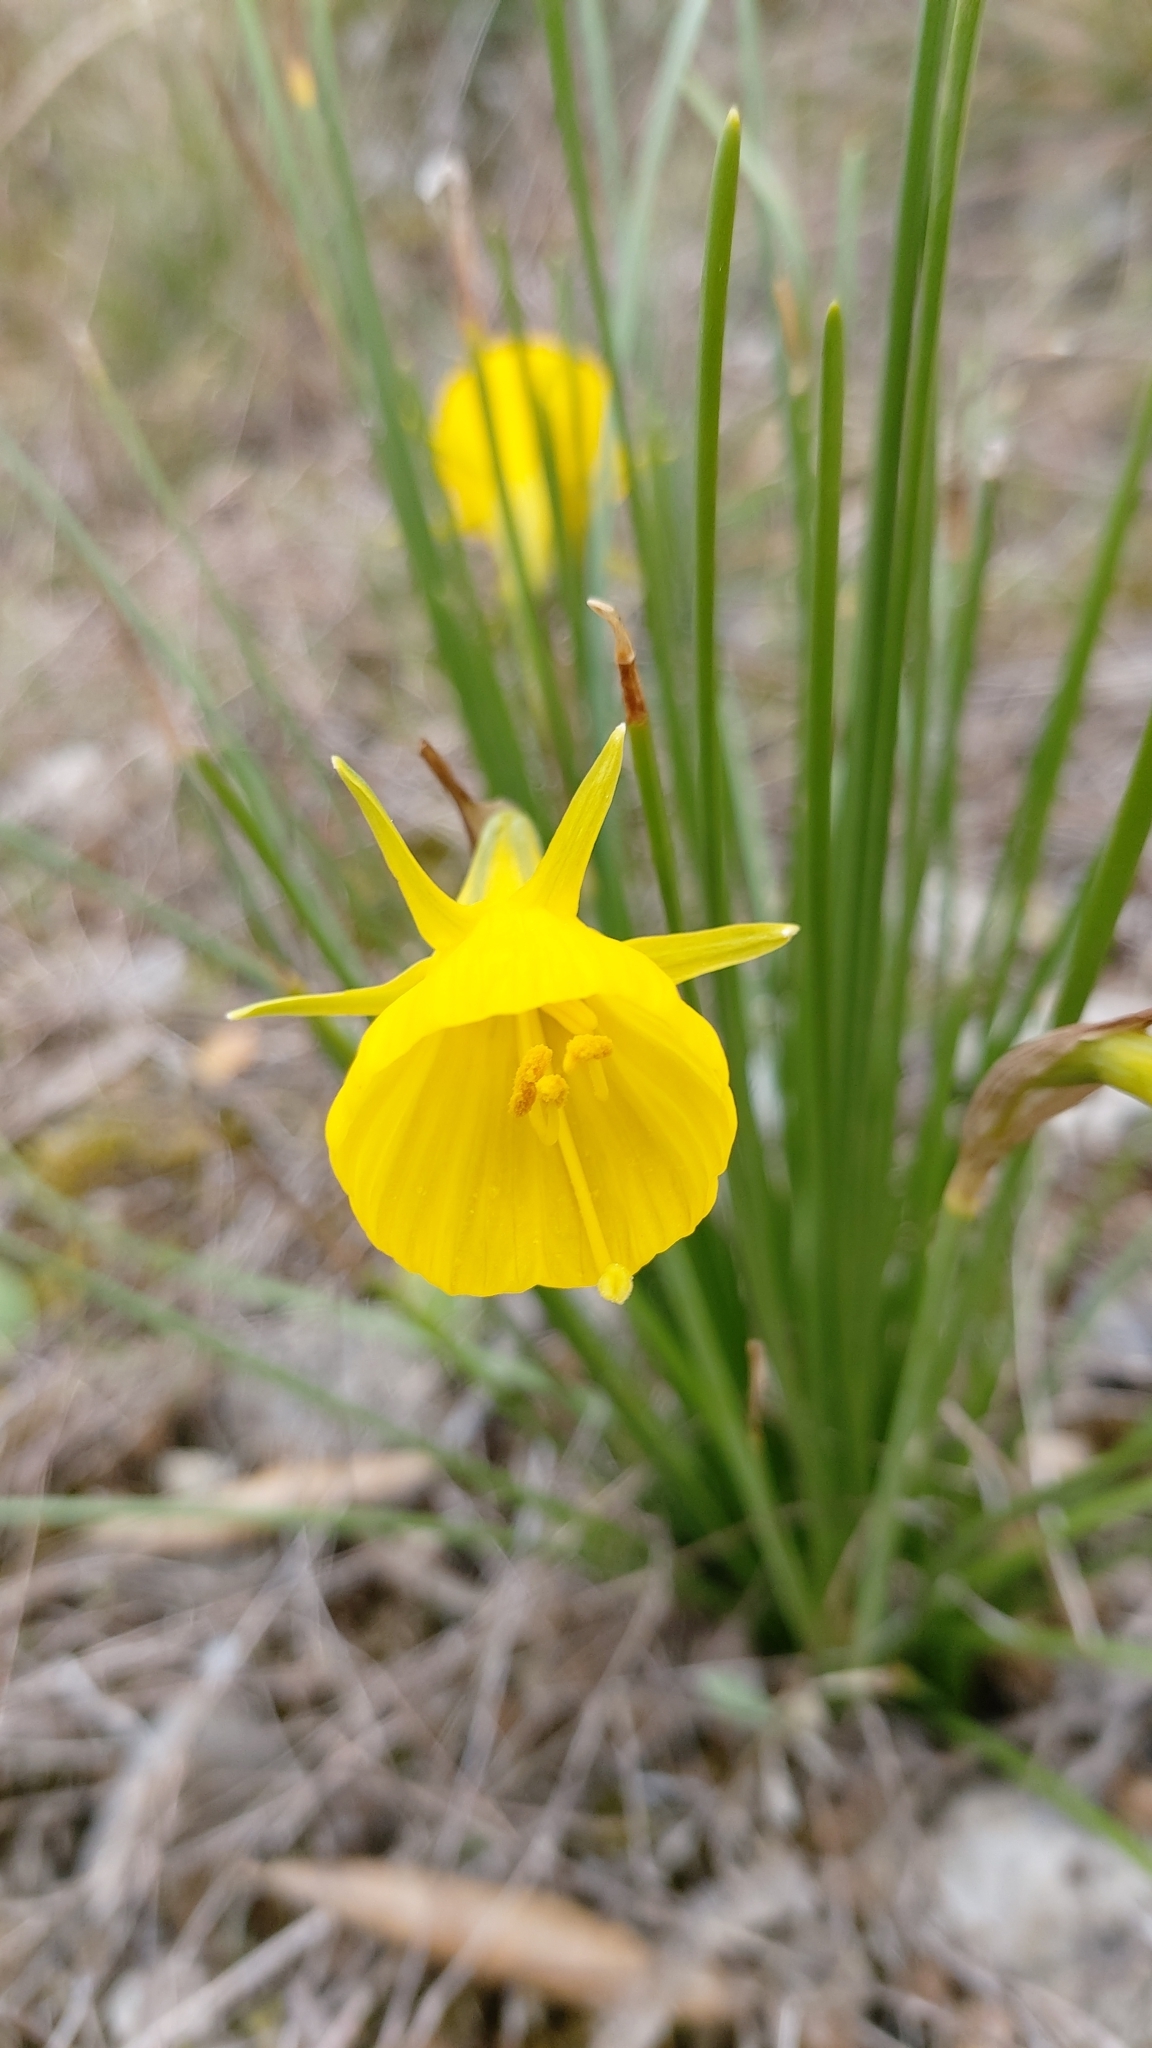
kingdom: Plantae
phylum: Tracheophyta
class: Liliopsida
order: Asparagales
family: Amaryllidaceae
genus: Narcissus
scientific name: Narcissus bulbocodium
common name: Hoop-petticoat daffodil
